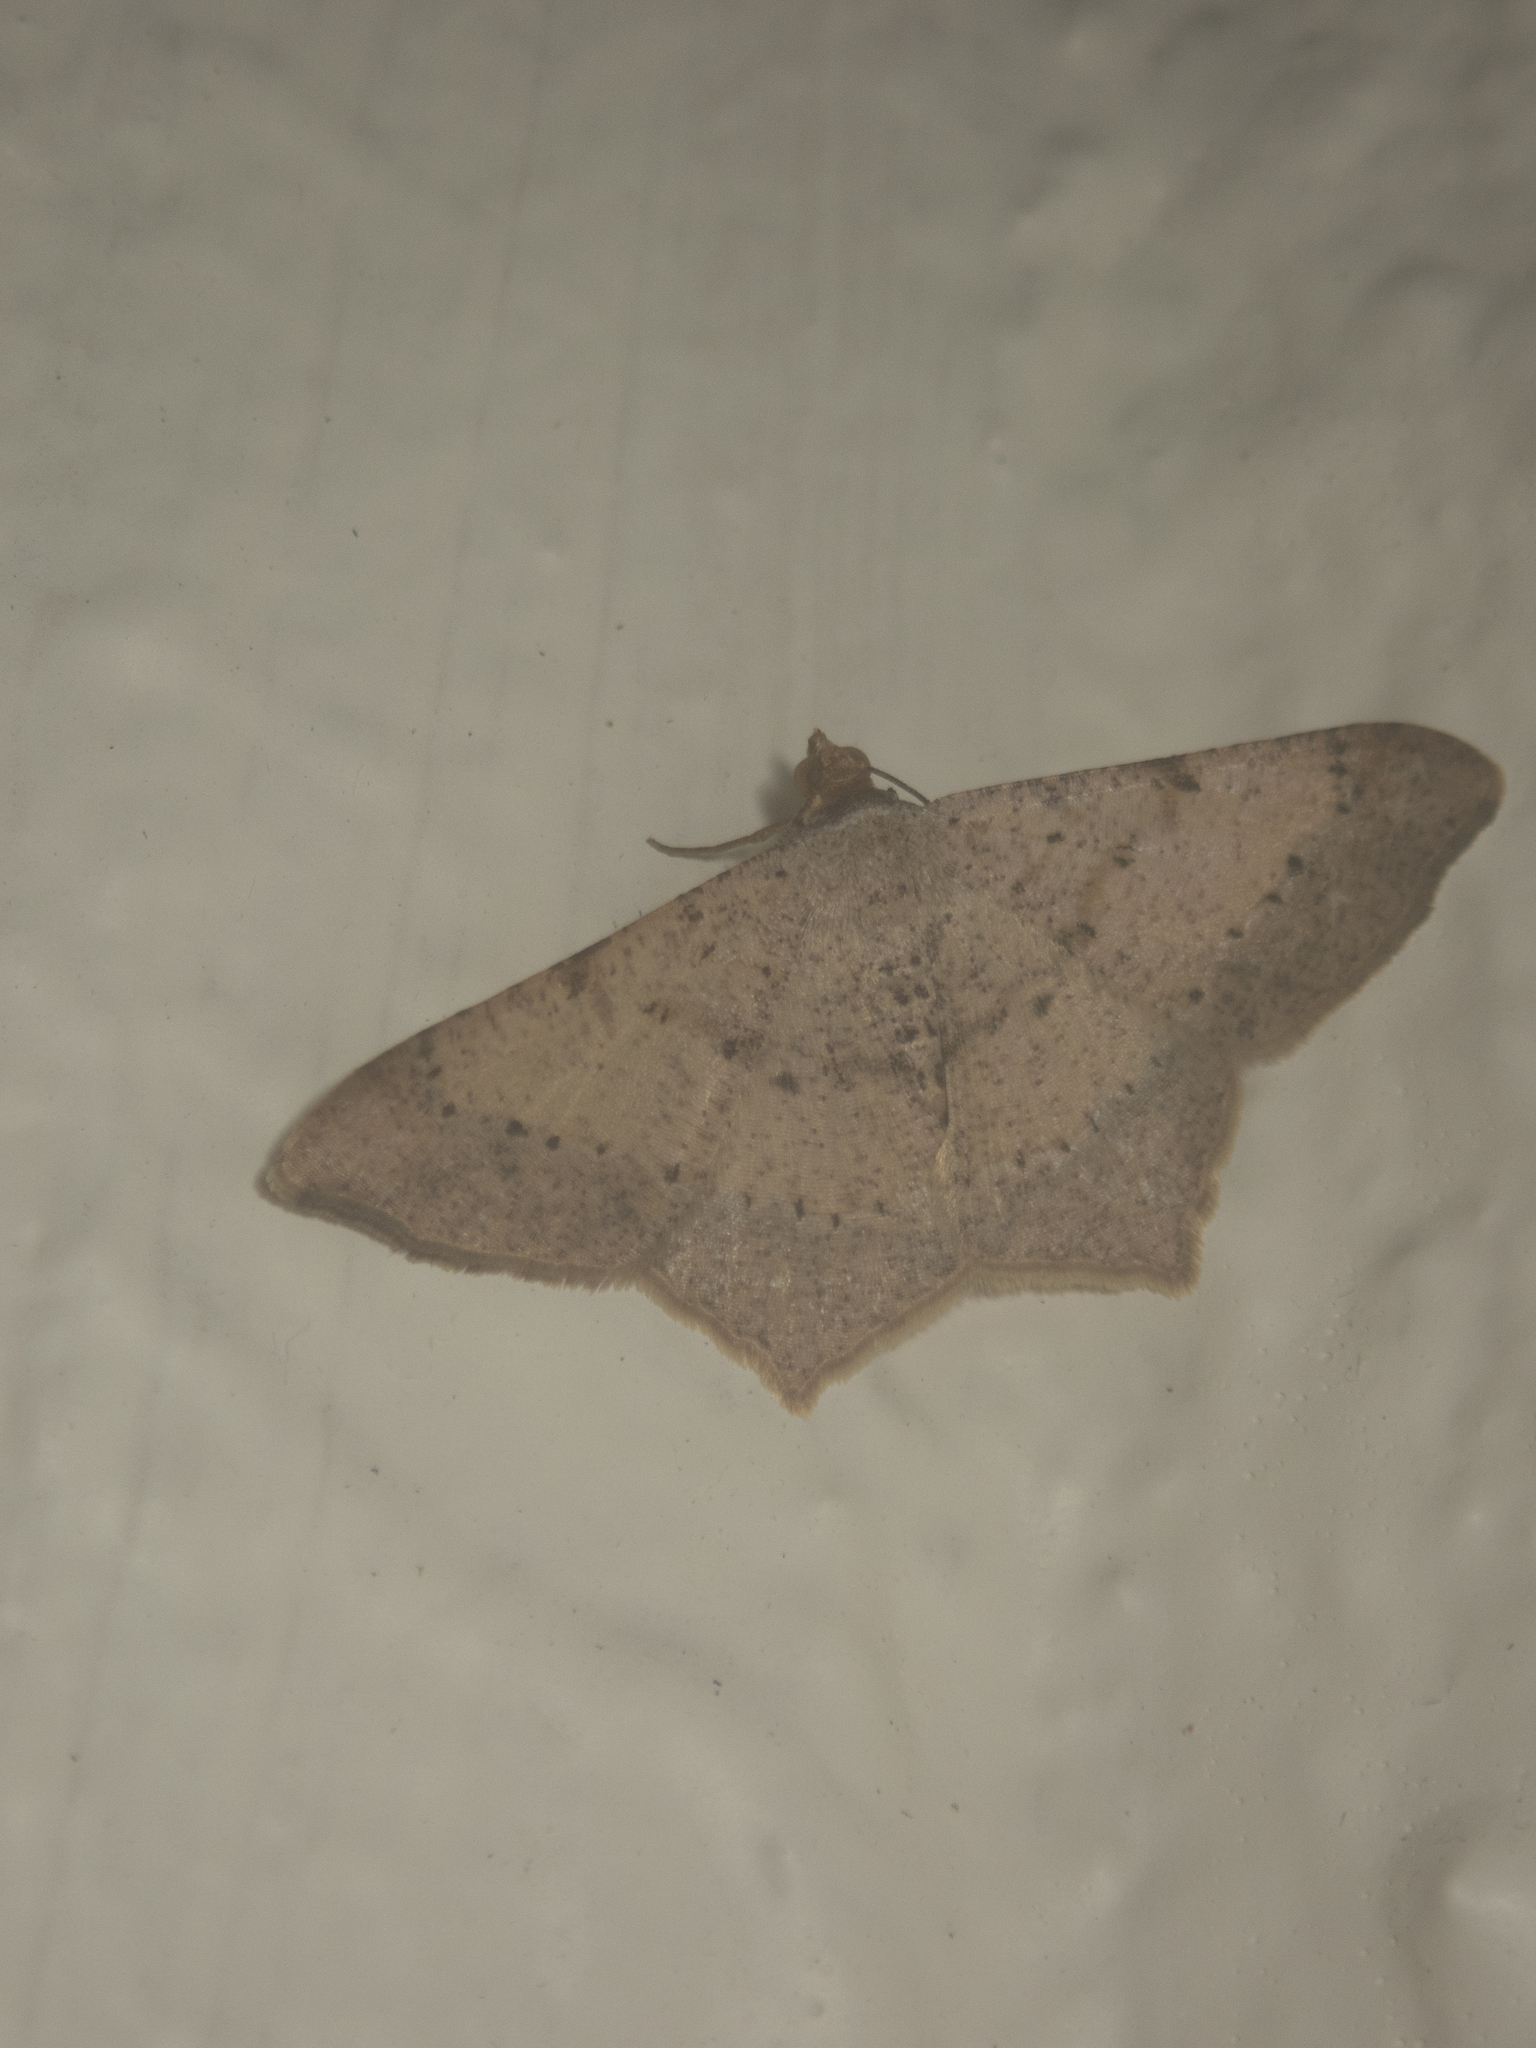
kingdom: Animalia
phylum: Arthropoda
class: Insecta
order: Lepidoptera
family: Geometridae
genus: Macaria
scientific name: Macaria abydata
